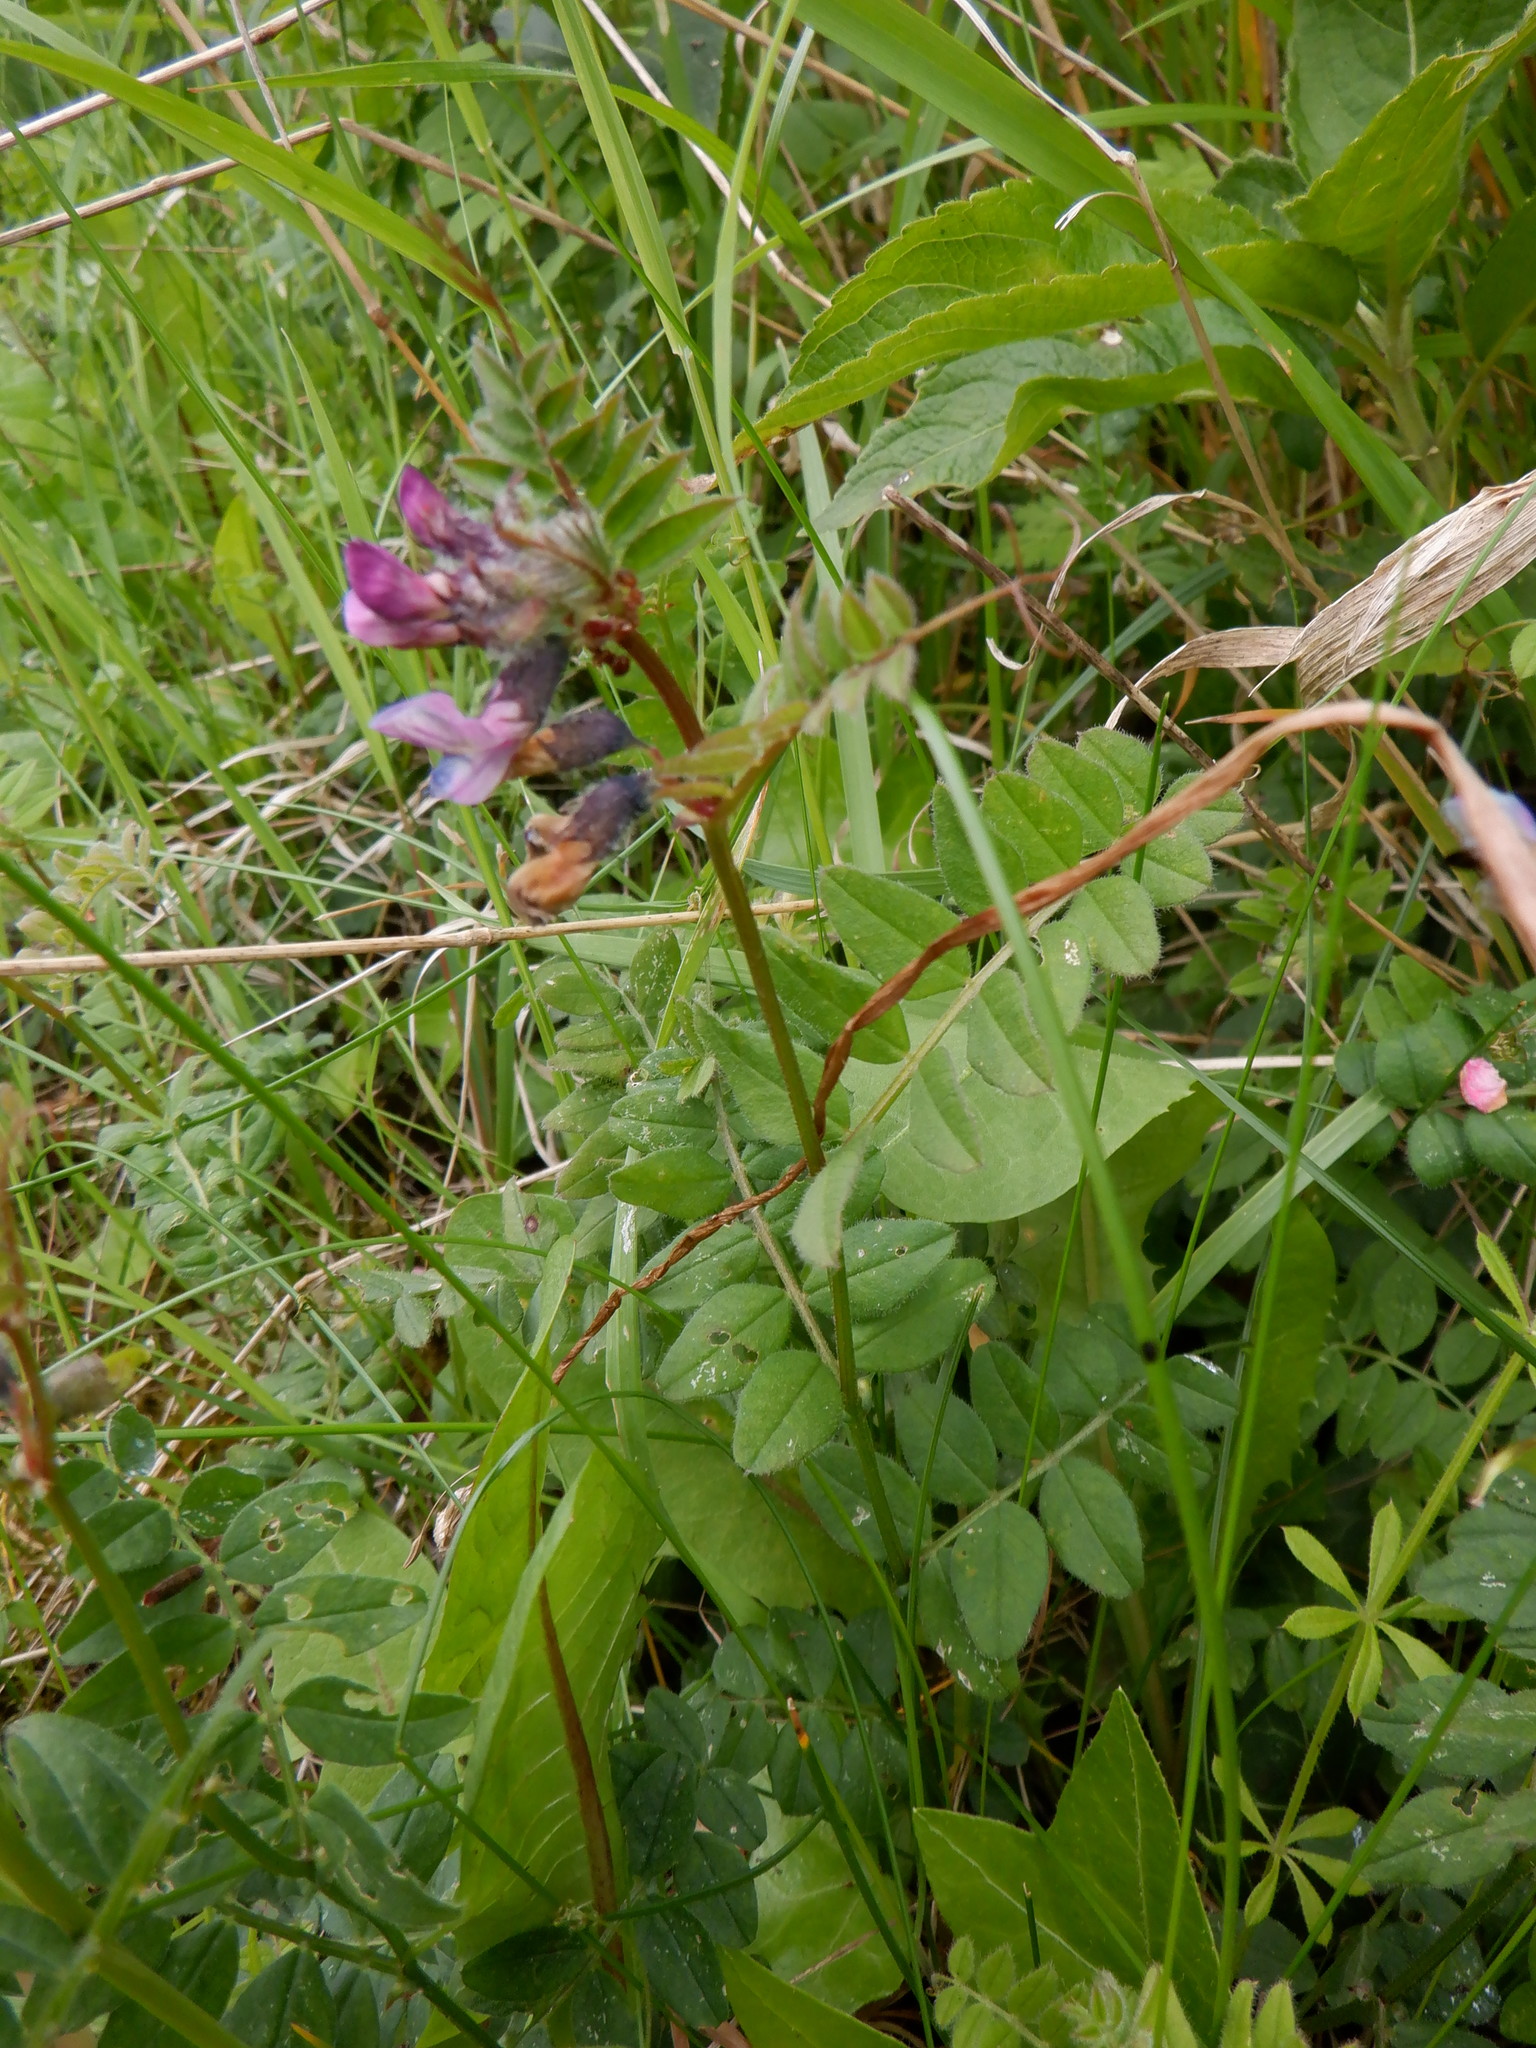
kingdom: Plantae
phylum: Tracheophyta
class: Magnoliopsida
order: Fabales
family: Fabaceae
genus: Vicia
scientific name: Vicia sepium
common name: Bush vetch
